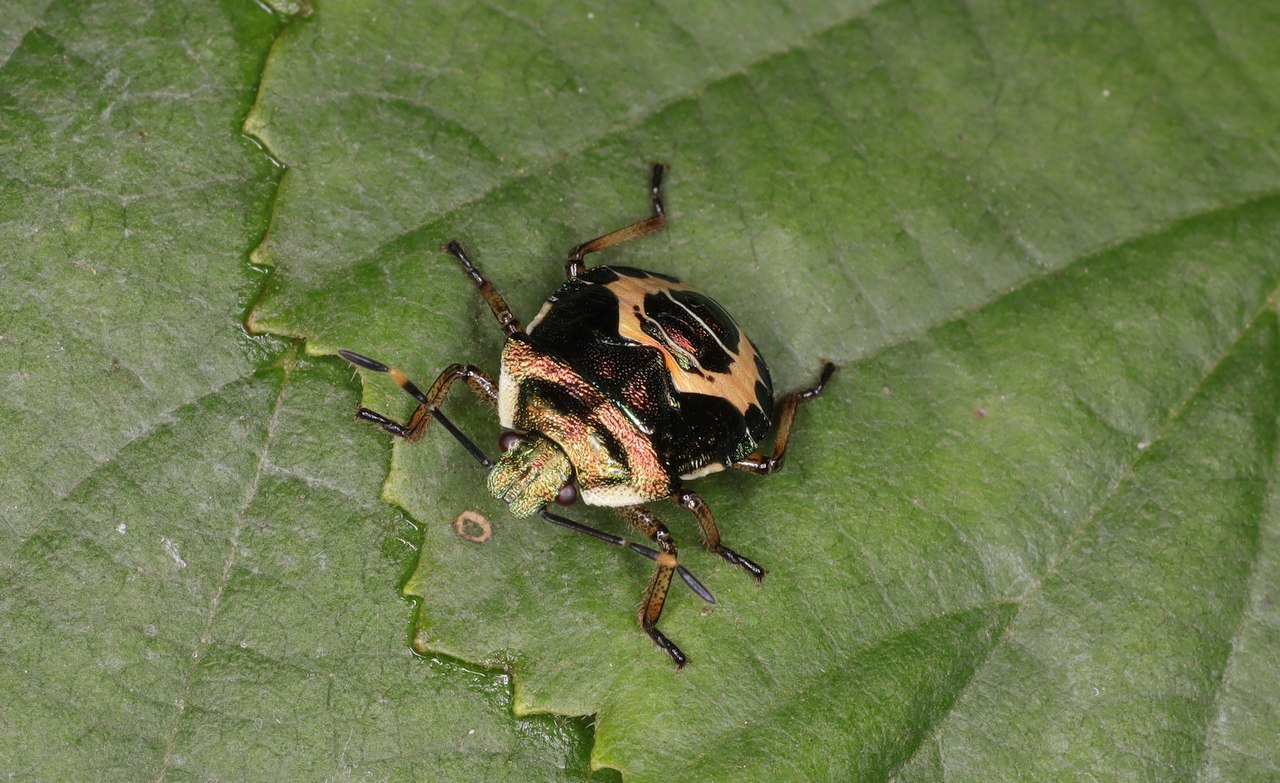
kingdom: Animalia
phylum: Arthropoda
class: Insecta
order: Hemiptera
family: Pentatomidae
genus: Troilus
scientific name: Troilus luridus
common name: Bronze shieldbug
